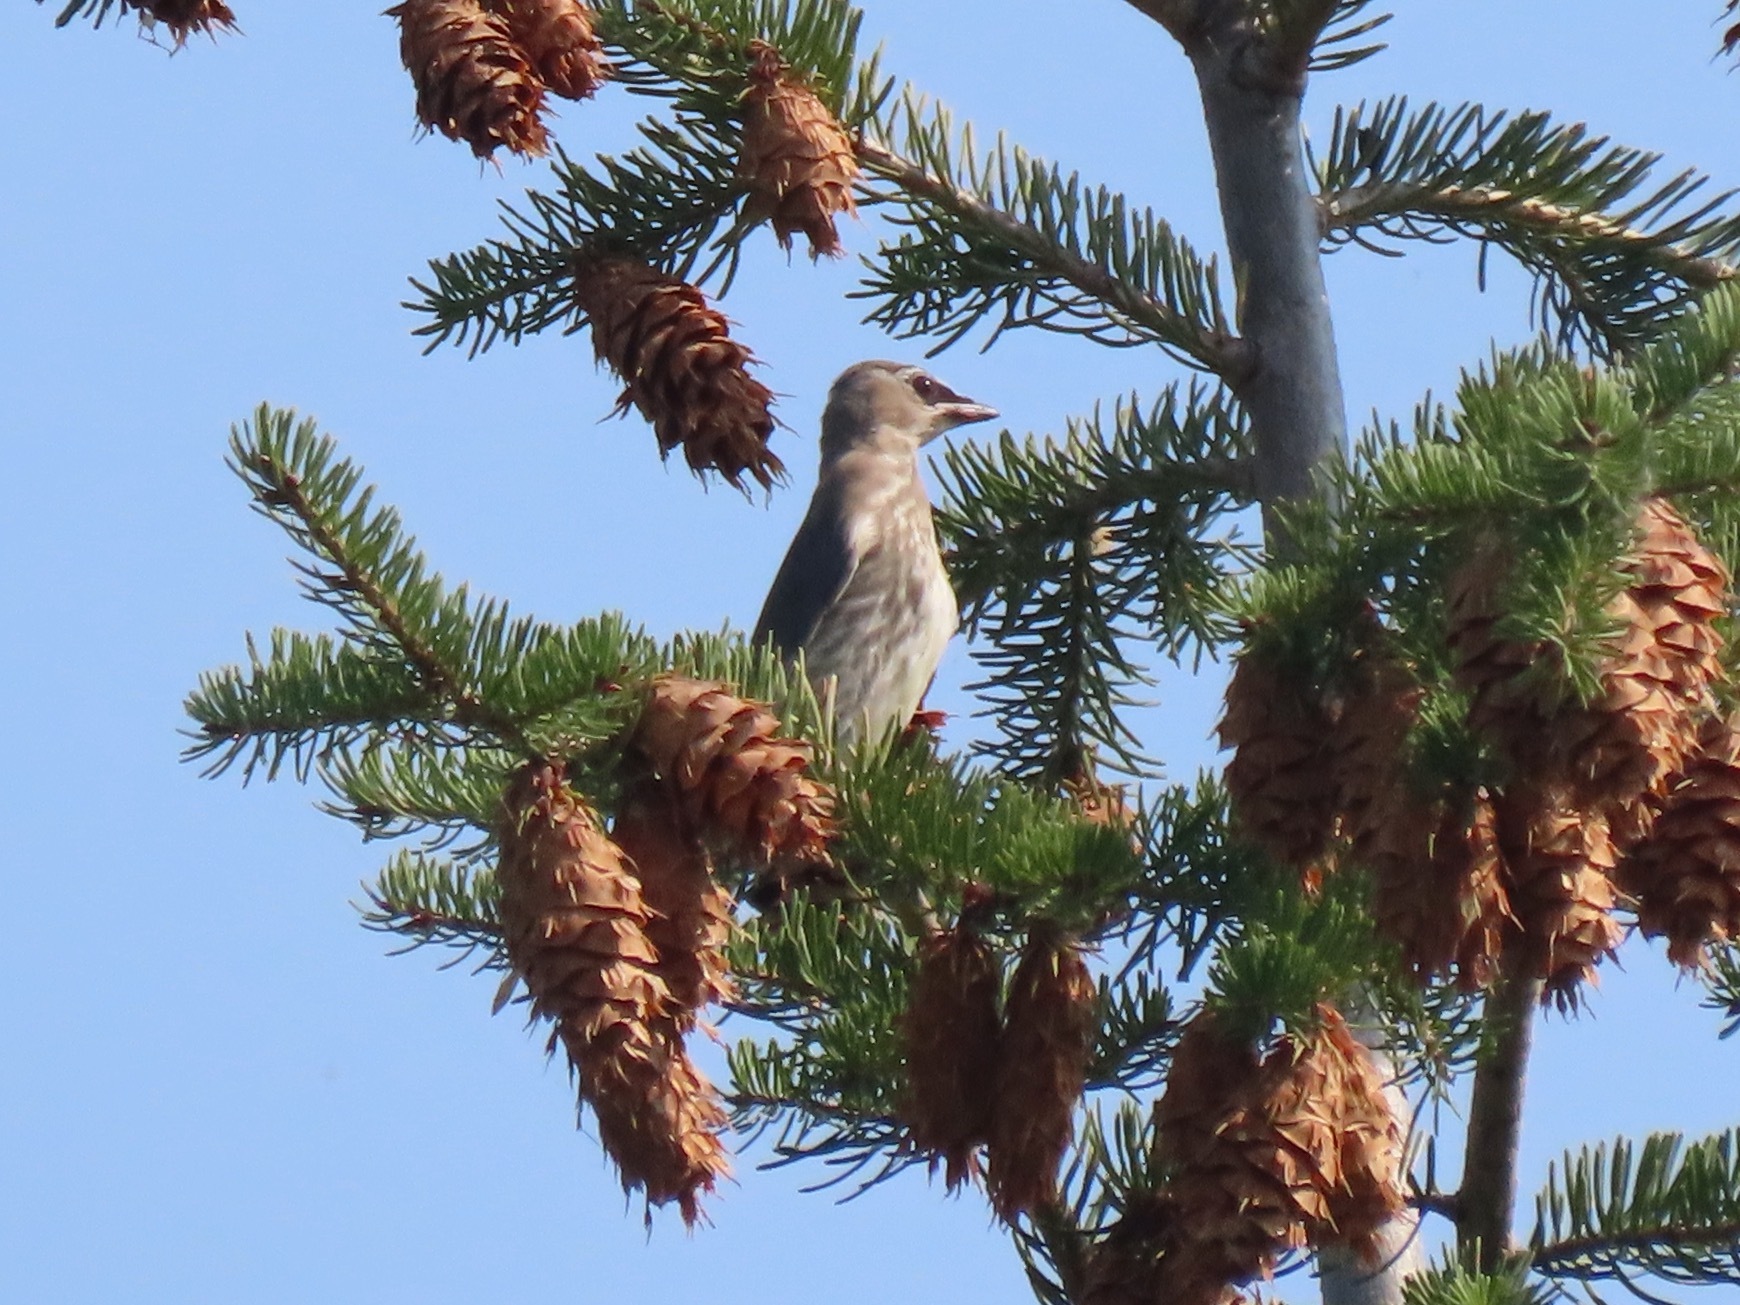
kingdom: Animalia
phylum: Chordata
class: Aves
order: Passeriformes
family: Bombycillidae
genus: Bombycilla
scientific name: Bombycilla cedrorum
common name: Cedar waxwing
